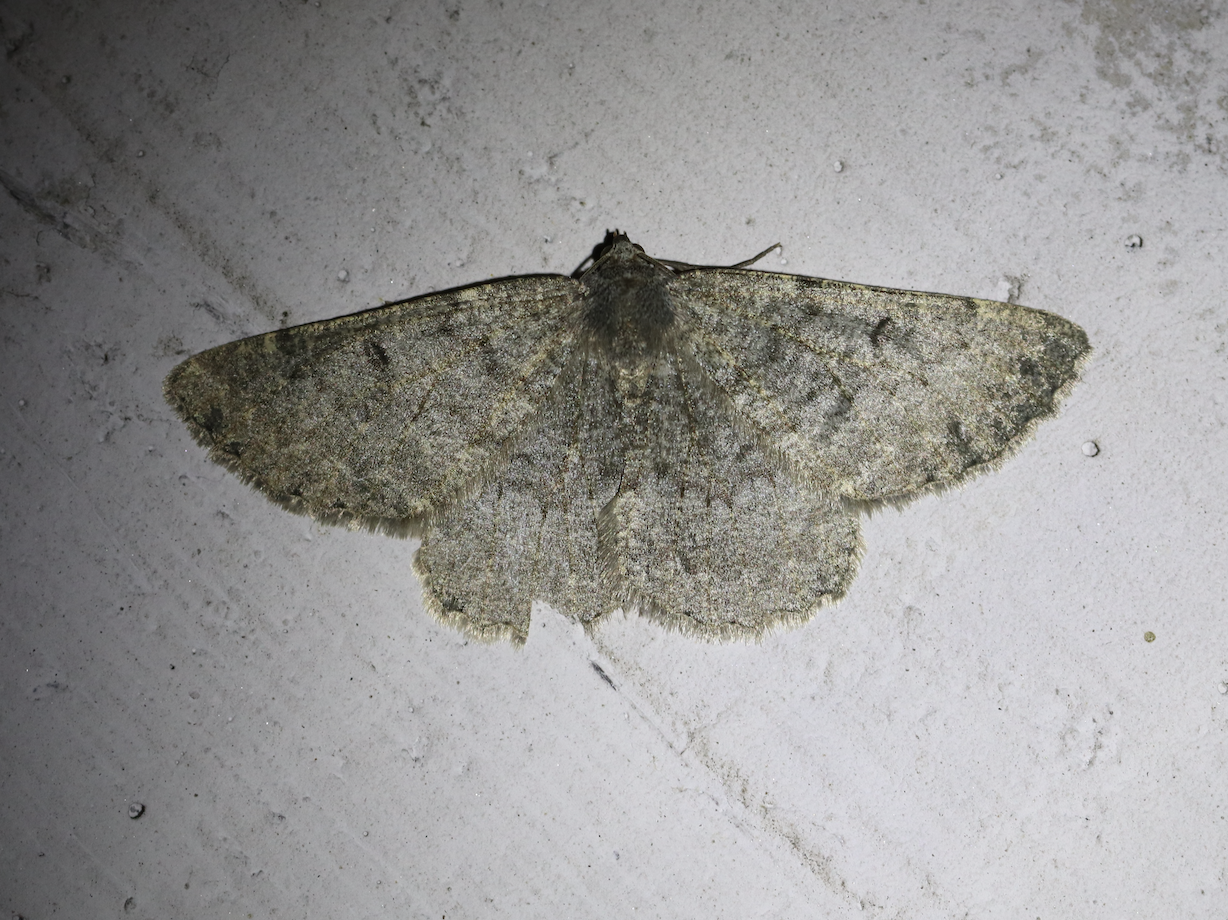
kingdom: Animalia
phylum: Arthropoda
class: Insecta
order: Lepidoptera
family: Geometridae
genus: Gnophos
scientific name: Gnophos obfuscata
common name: Scottish annulet
